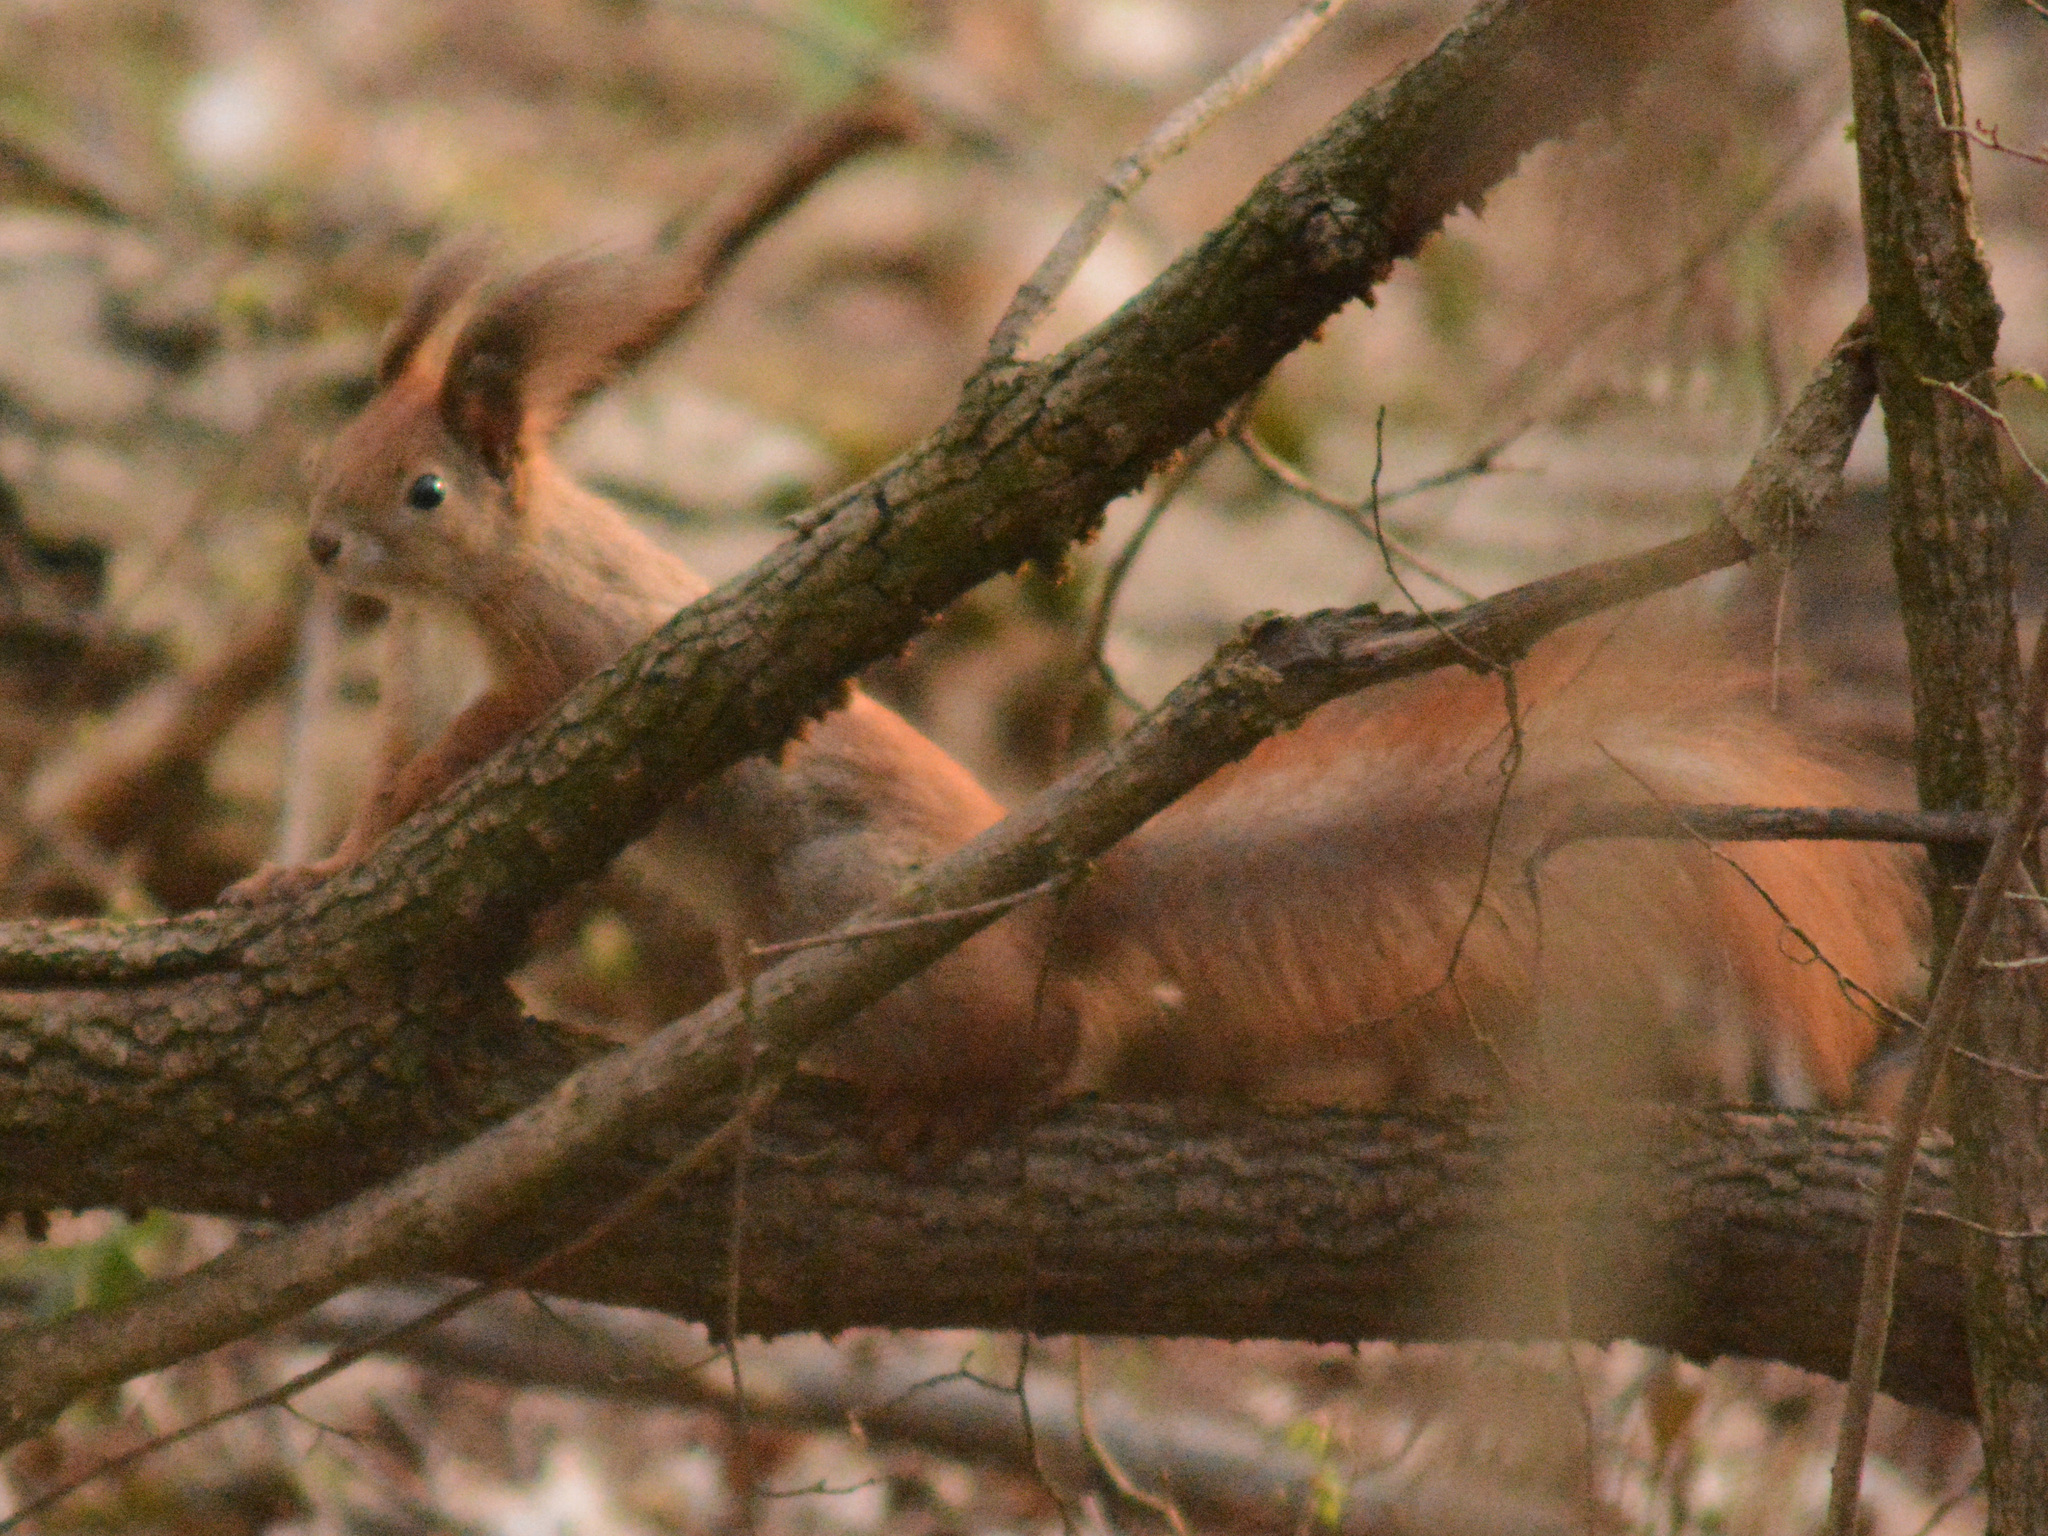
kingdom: Animalia
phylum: Chordata
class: Mammalia
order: Rodentia
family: Sciuridae
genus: Sciurus
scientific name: Sciurus vulgaris
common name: Eurasian red squirrel
